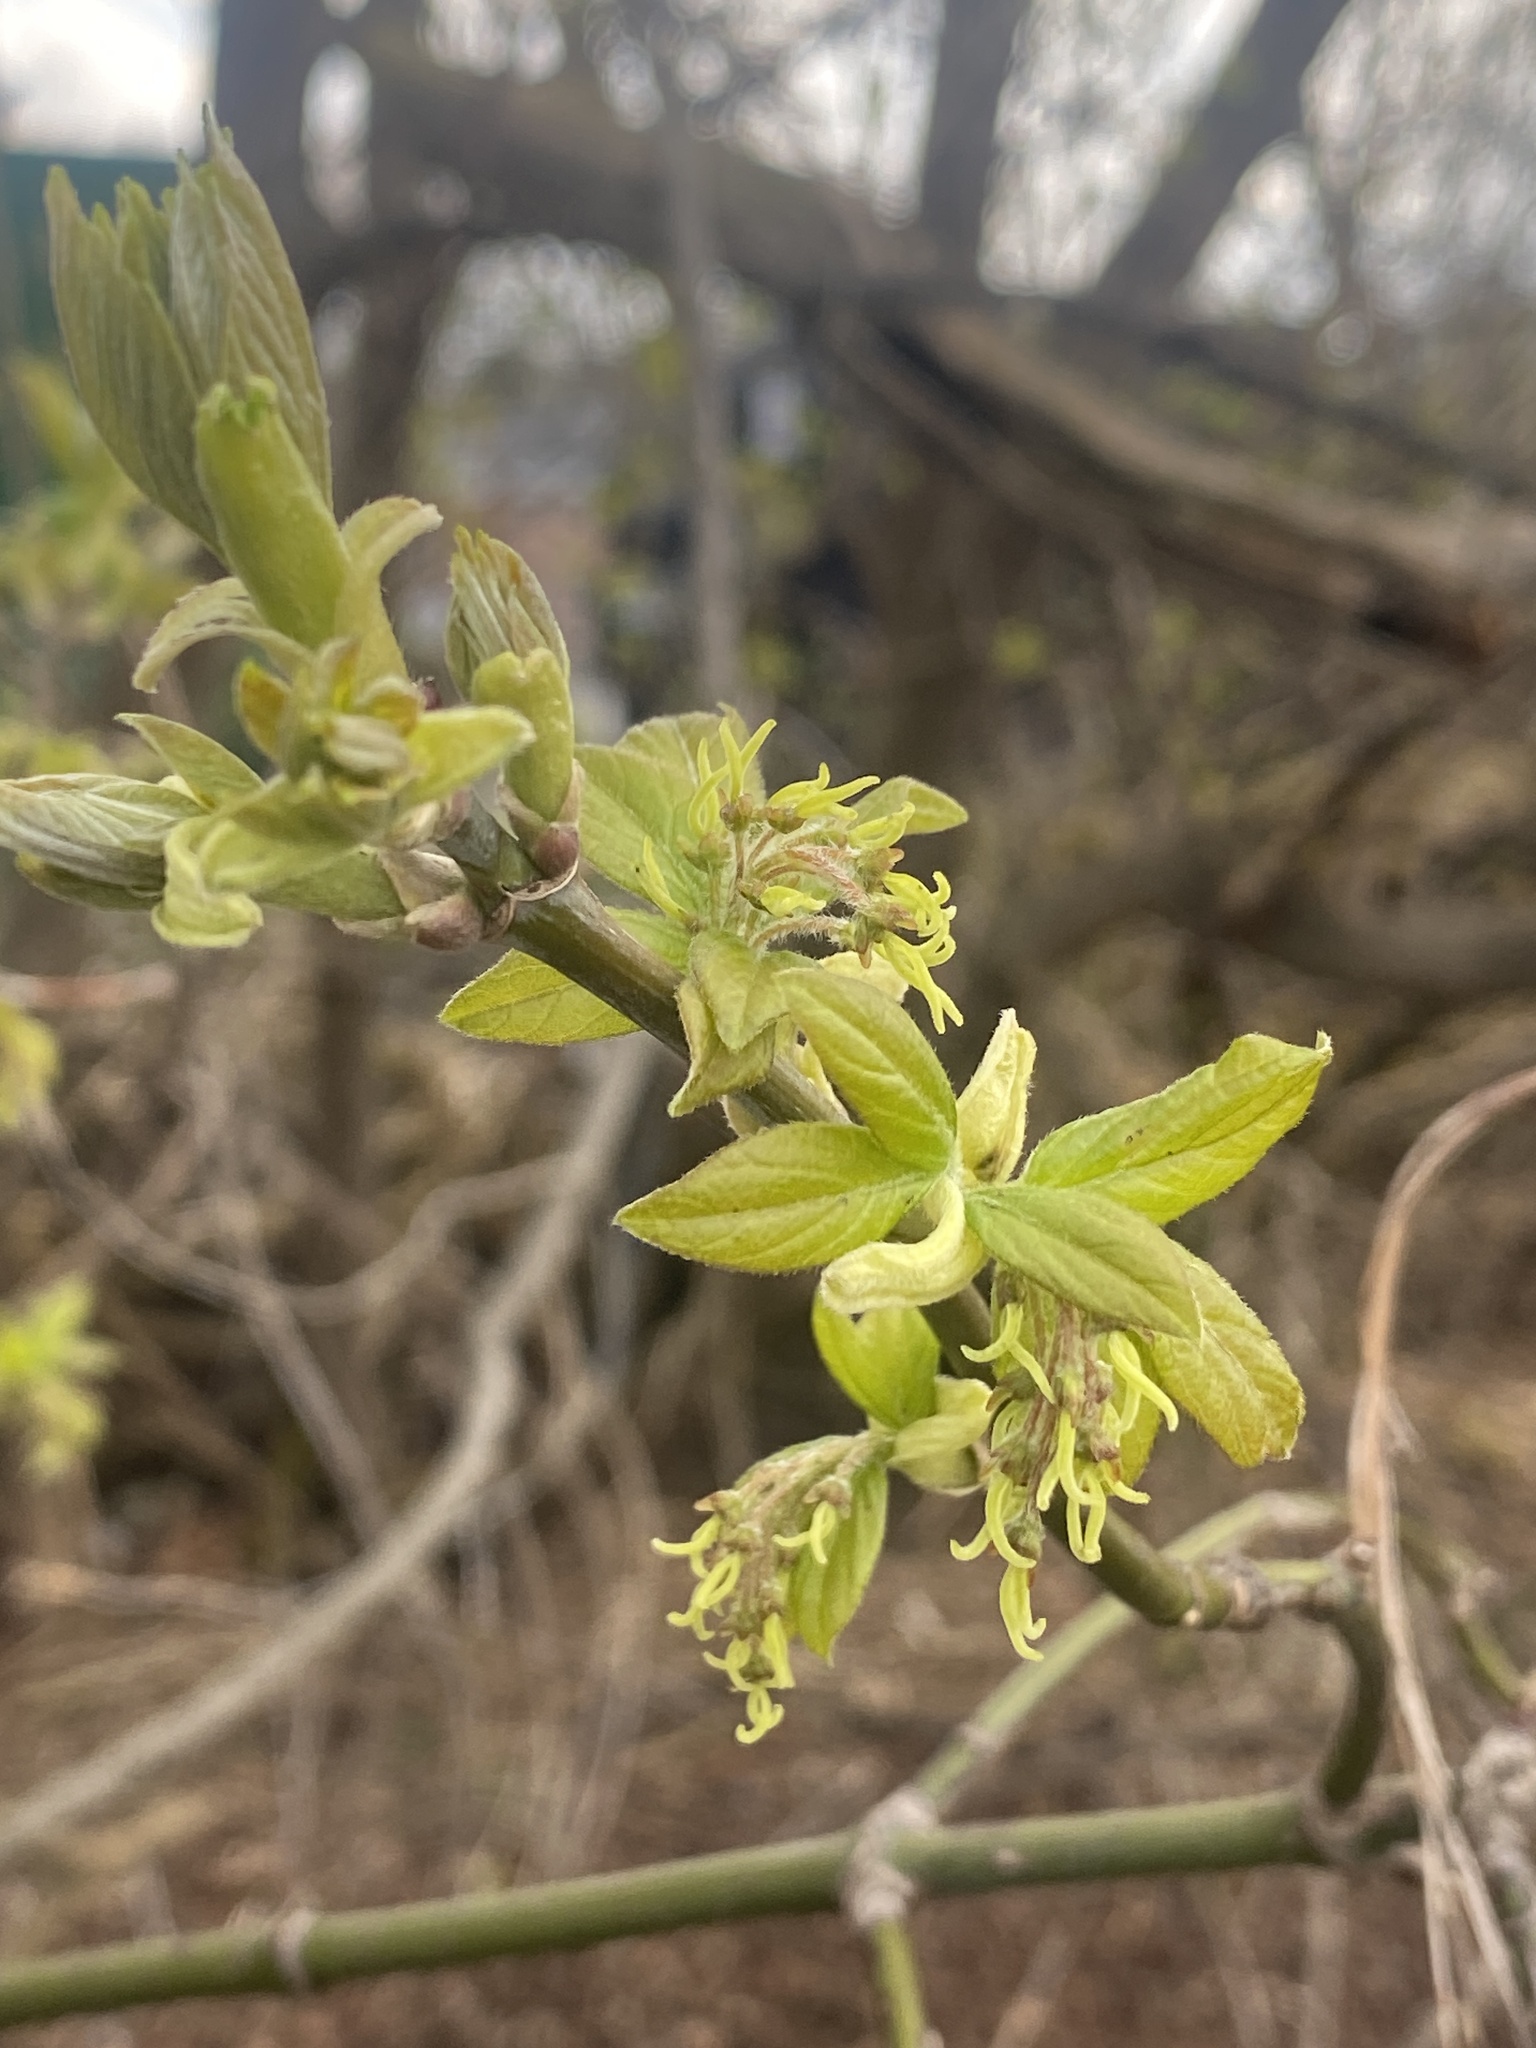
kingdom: Plantae
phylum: Tracheophyta
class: Magnoliopsida
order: Sapindales
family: Sapindaceae
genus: Acer
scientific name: Acer negundo
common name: Ashleaf maple
